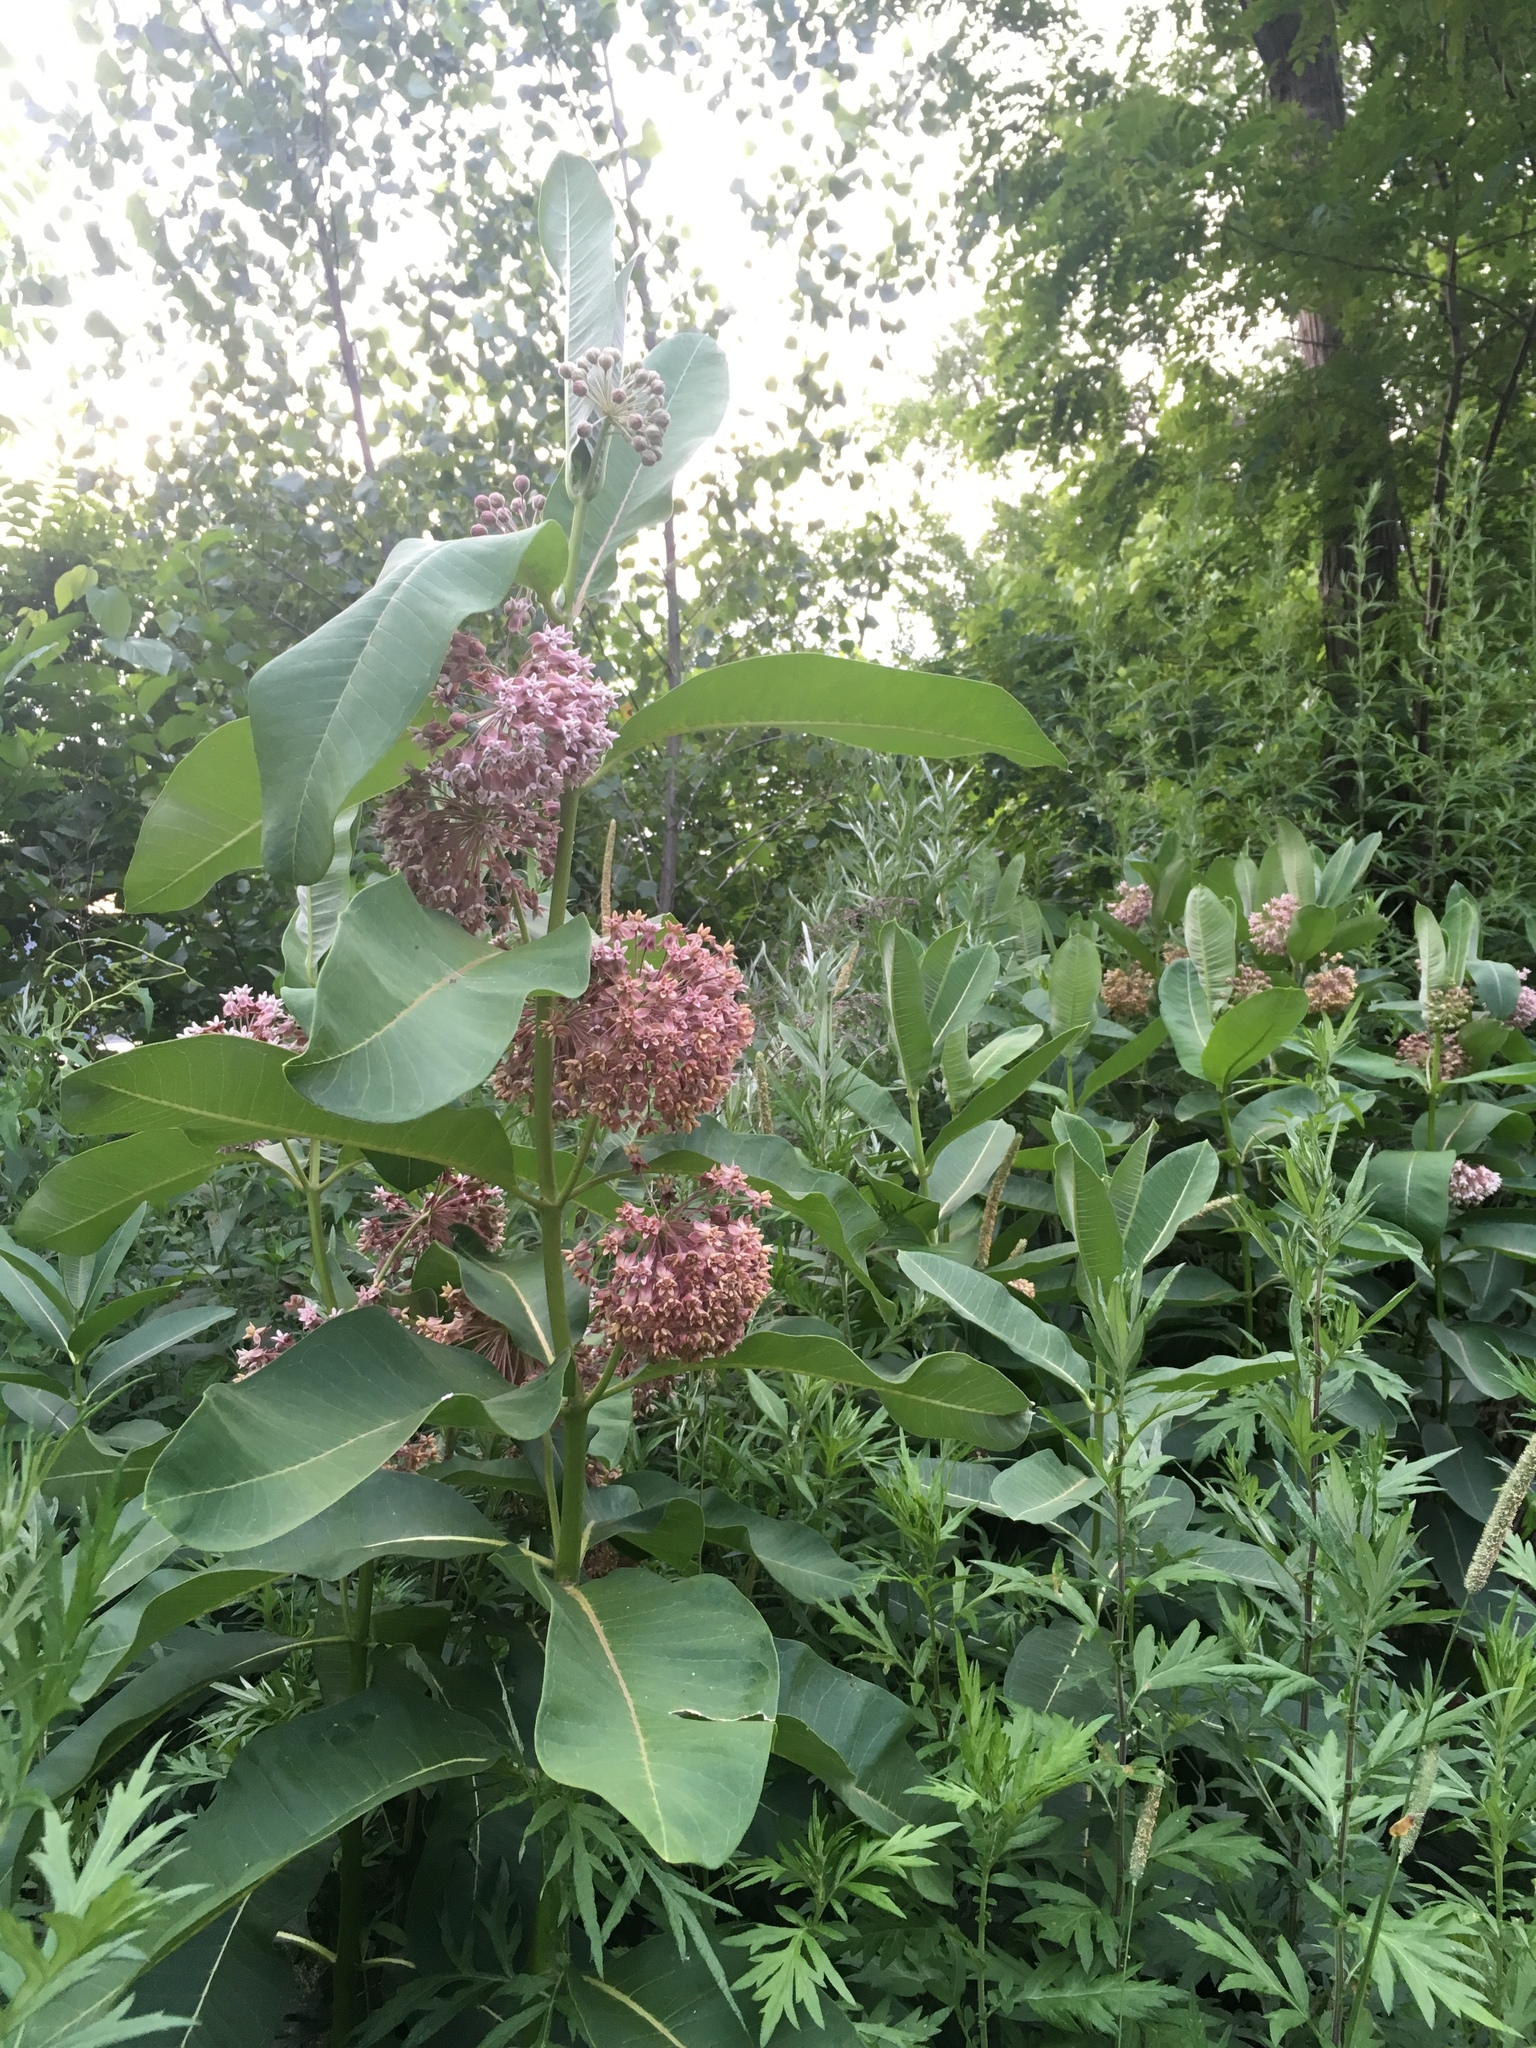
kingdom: Plantae
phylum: Tracheophyta
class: Magnoliopsida
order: Gentianales
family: Apocynaceae
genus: Asclepias
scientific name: Asclepias syriaca
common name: Common milkweed
